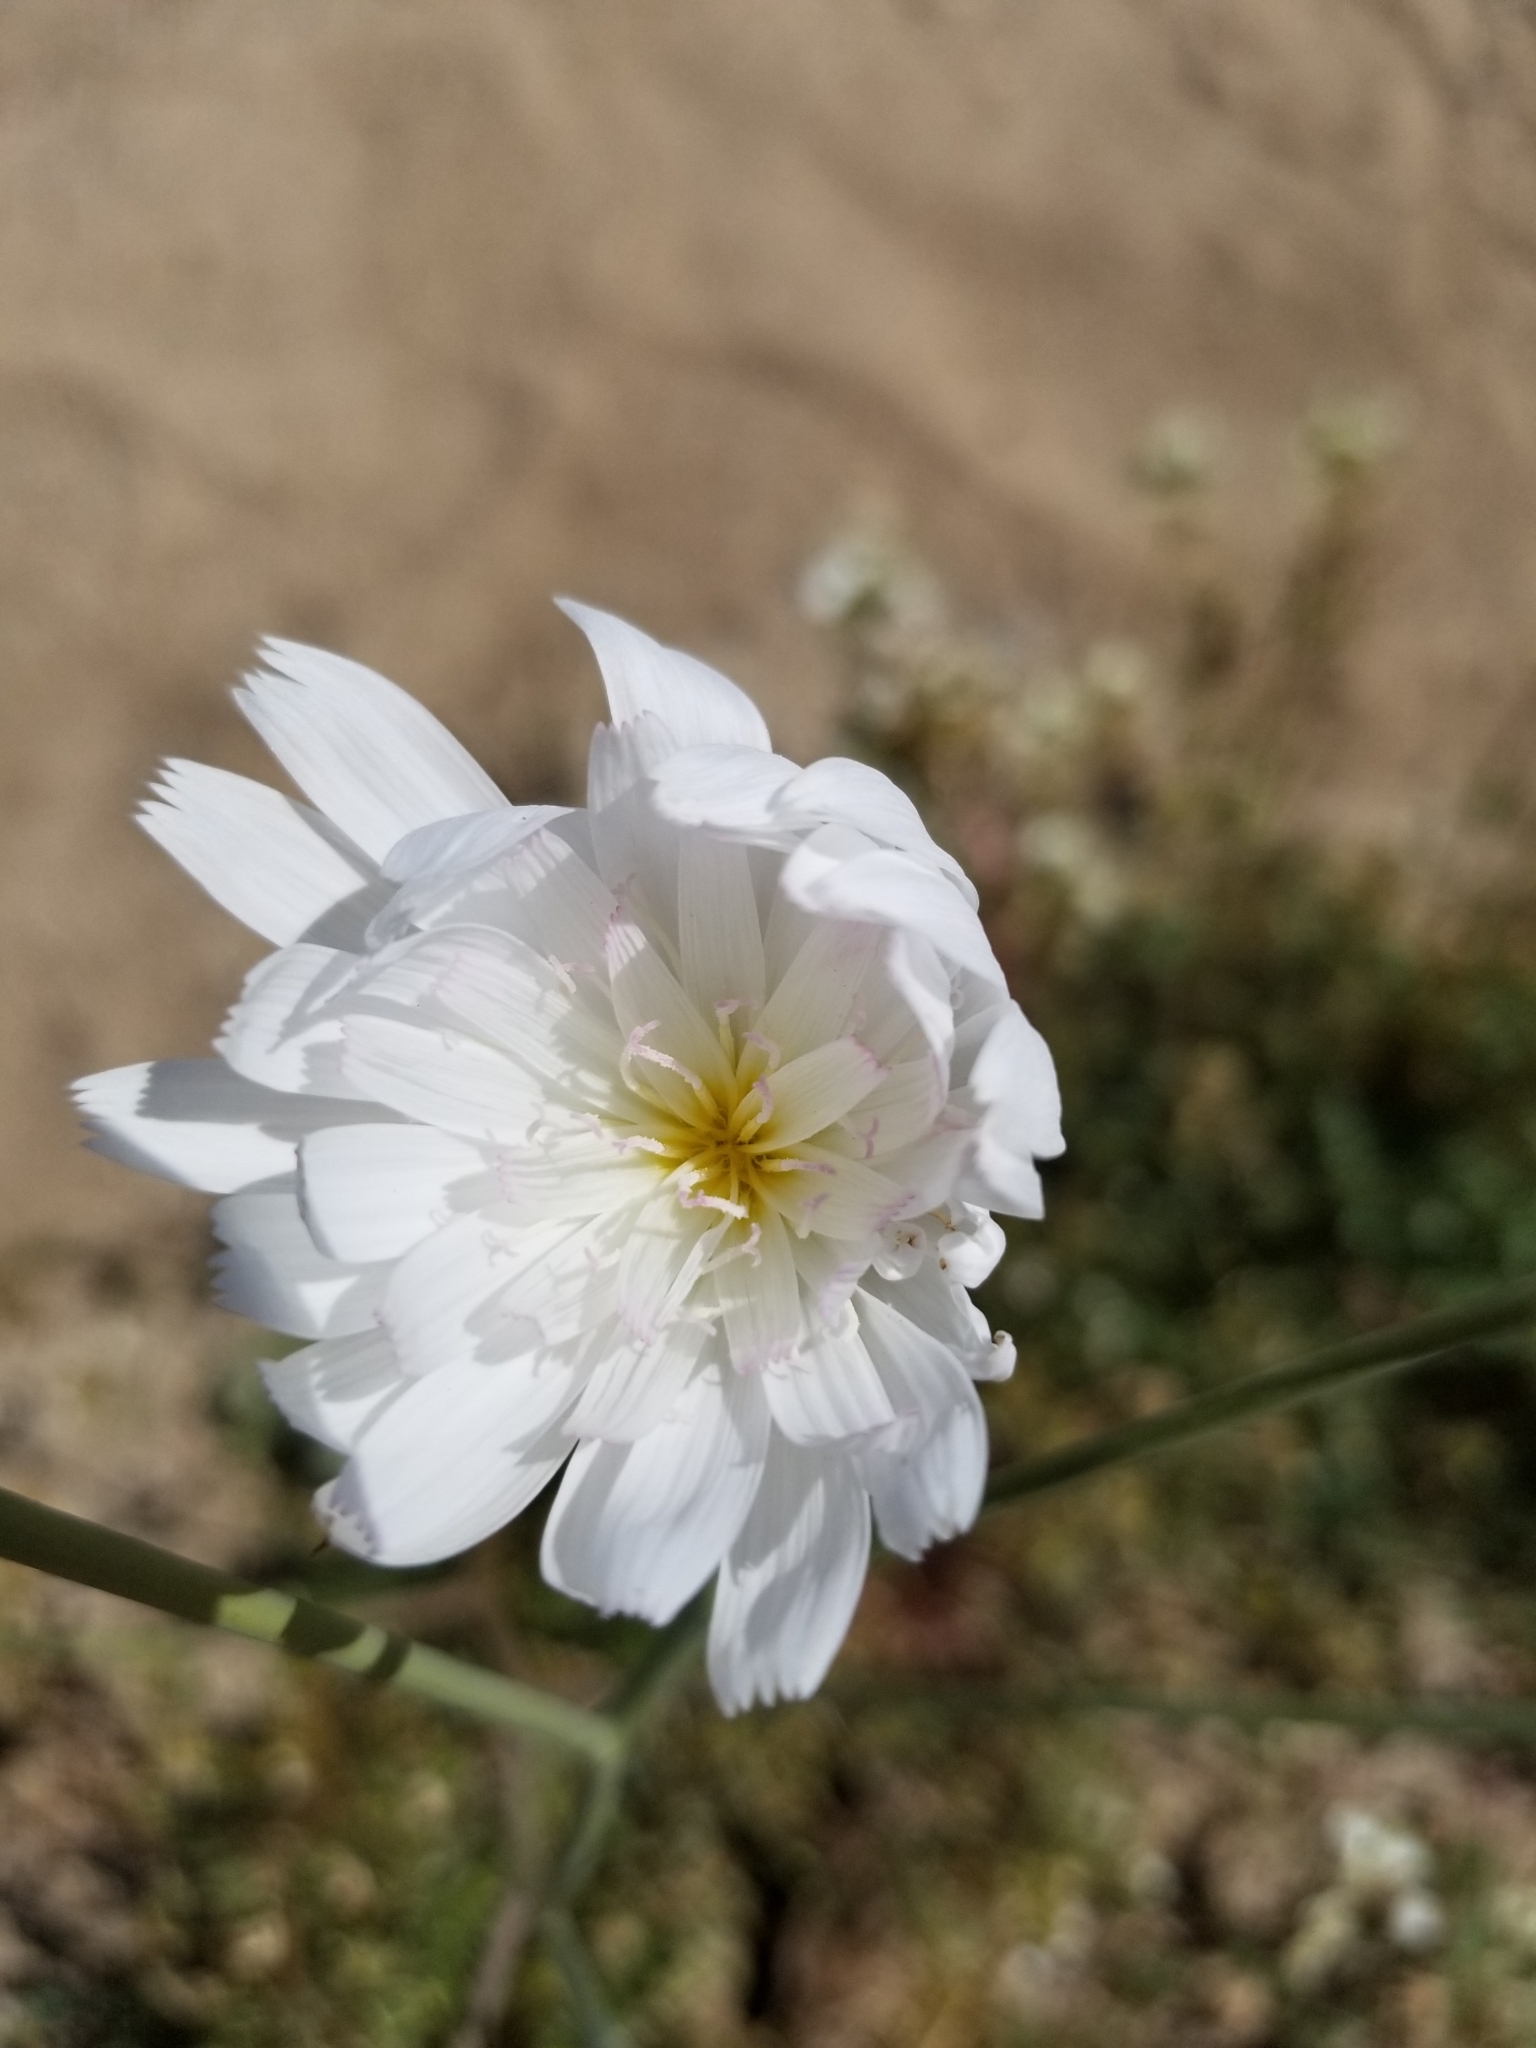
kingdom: Plantae
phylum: Tracheophyta
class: Magnoliopsida
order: Asterales
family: Asteraceae
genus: Rafinesquia
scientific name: Rafinesquia neomexicana
